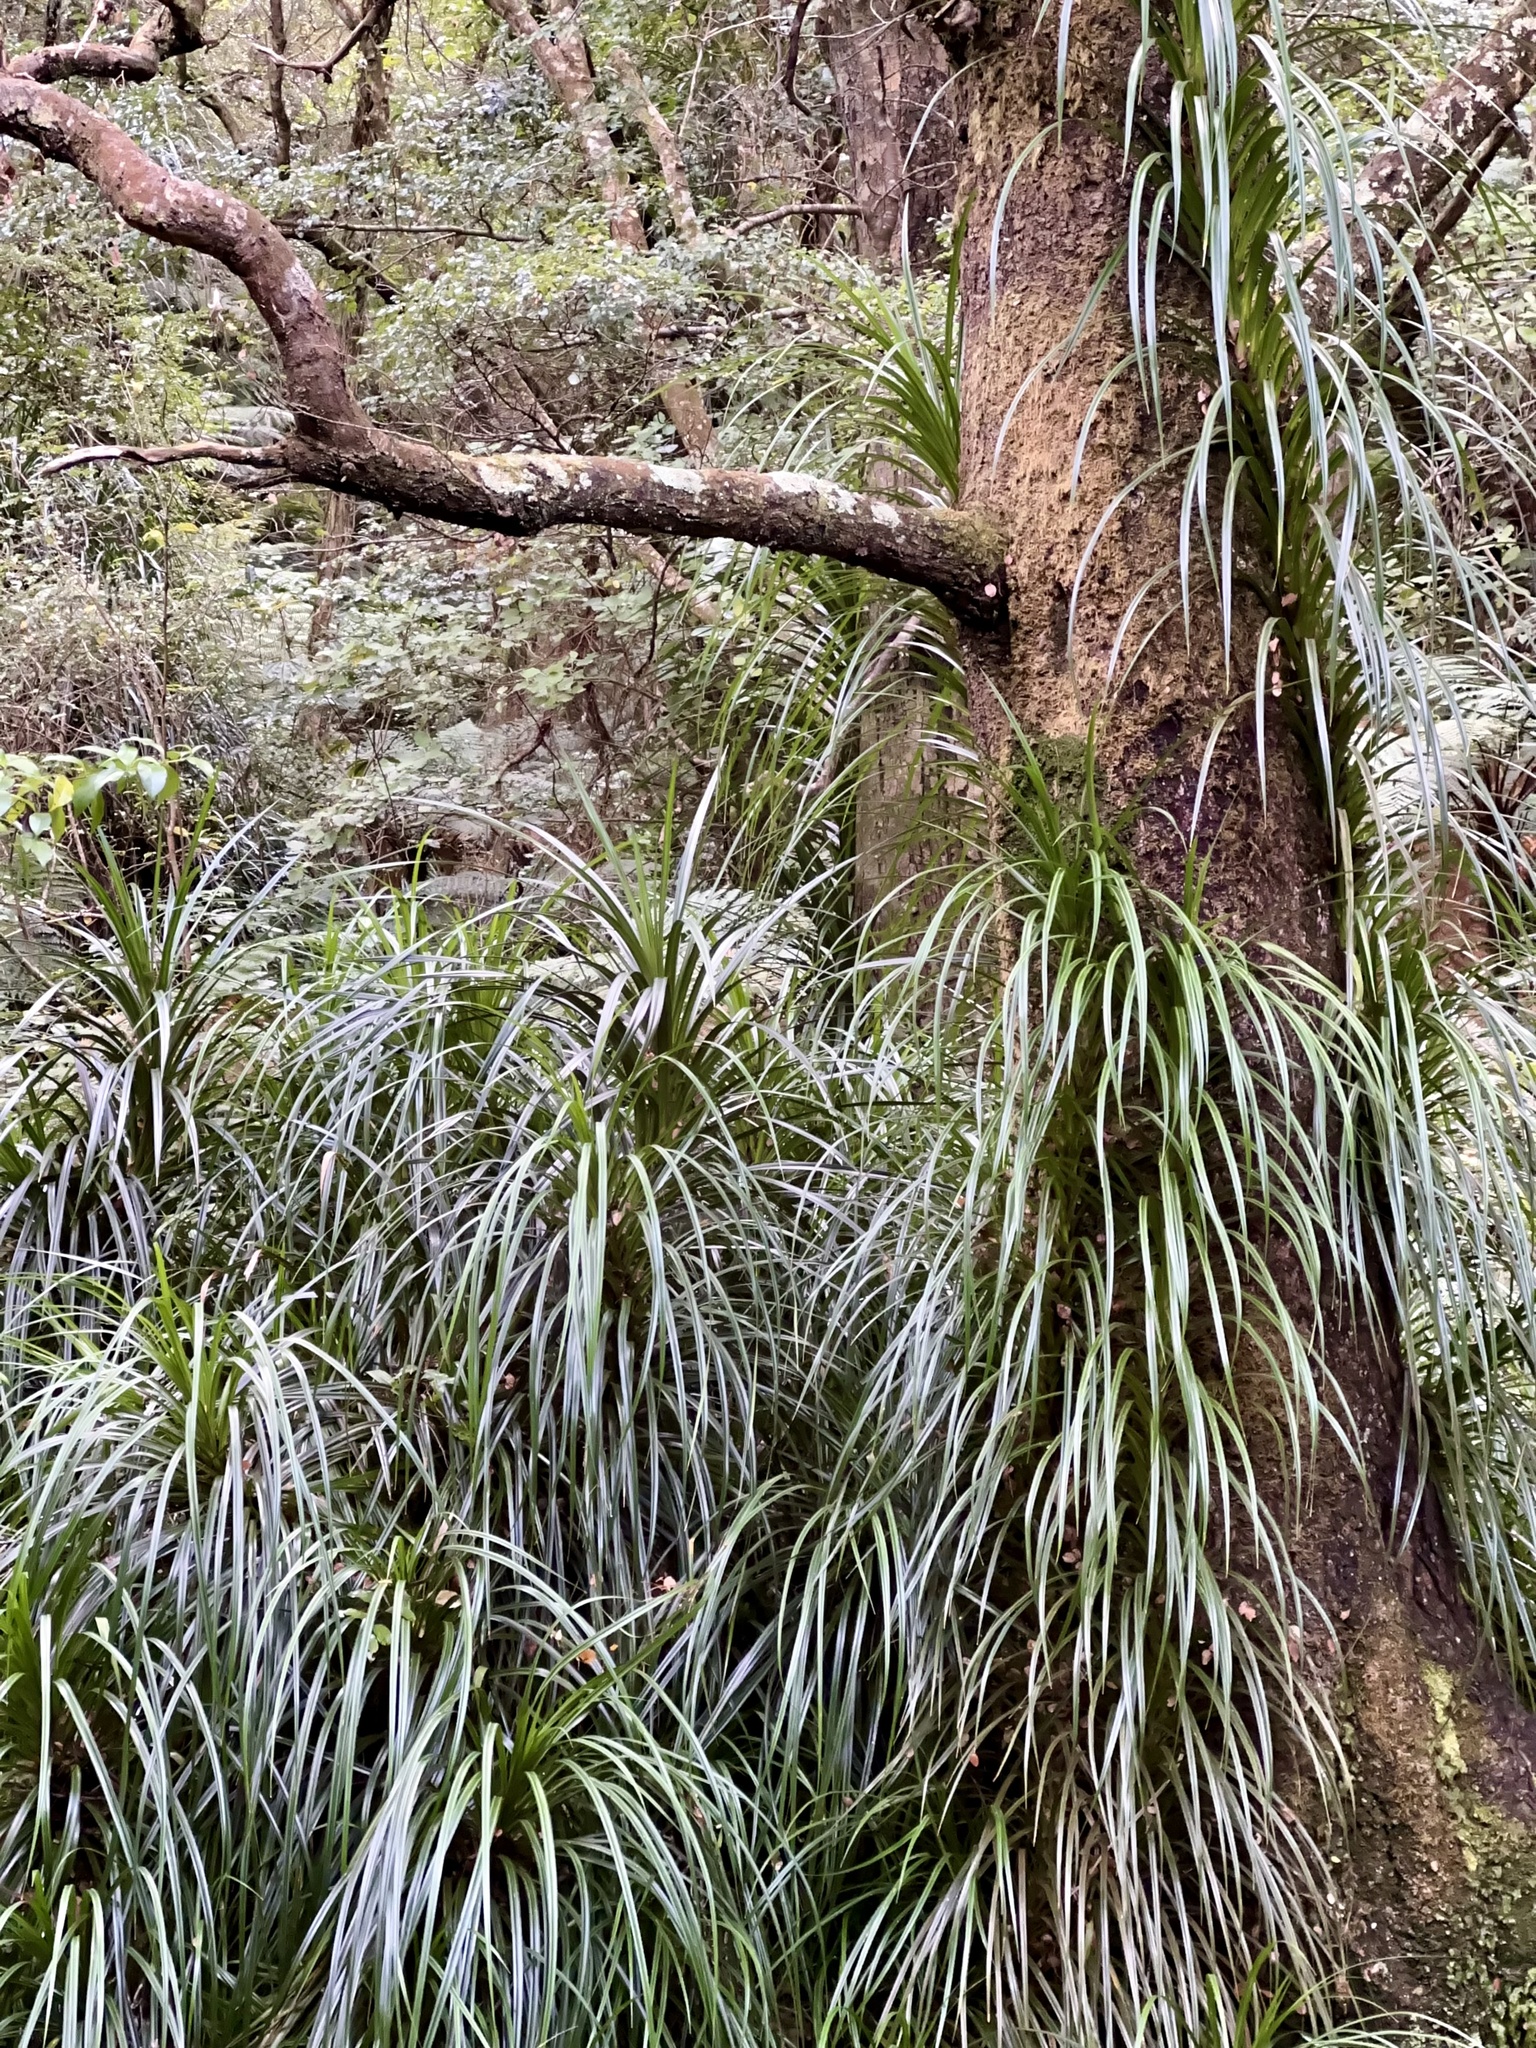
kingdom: Plantae
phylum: Tracheophyta
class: Liliopsida
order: Pandanales
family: Pandanaceae
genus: Freycinetia
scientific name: Freycinetia banksii
